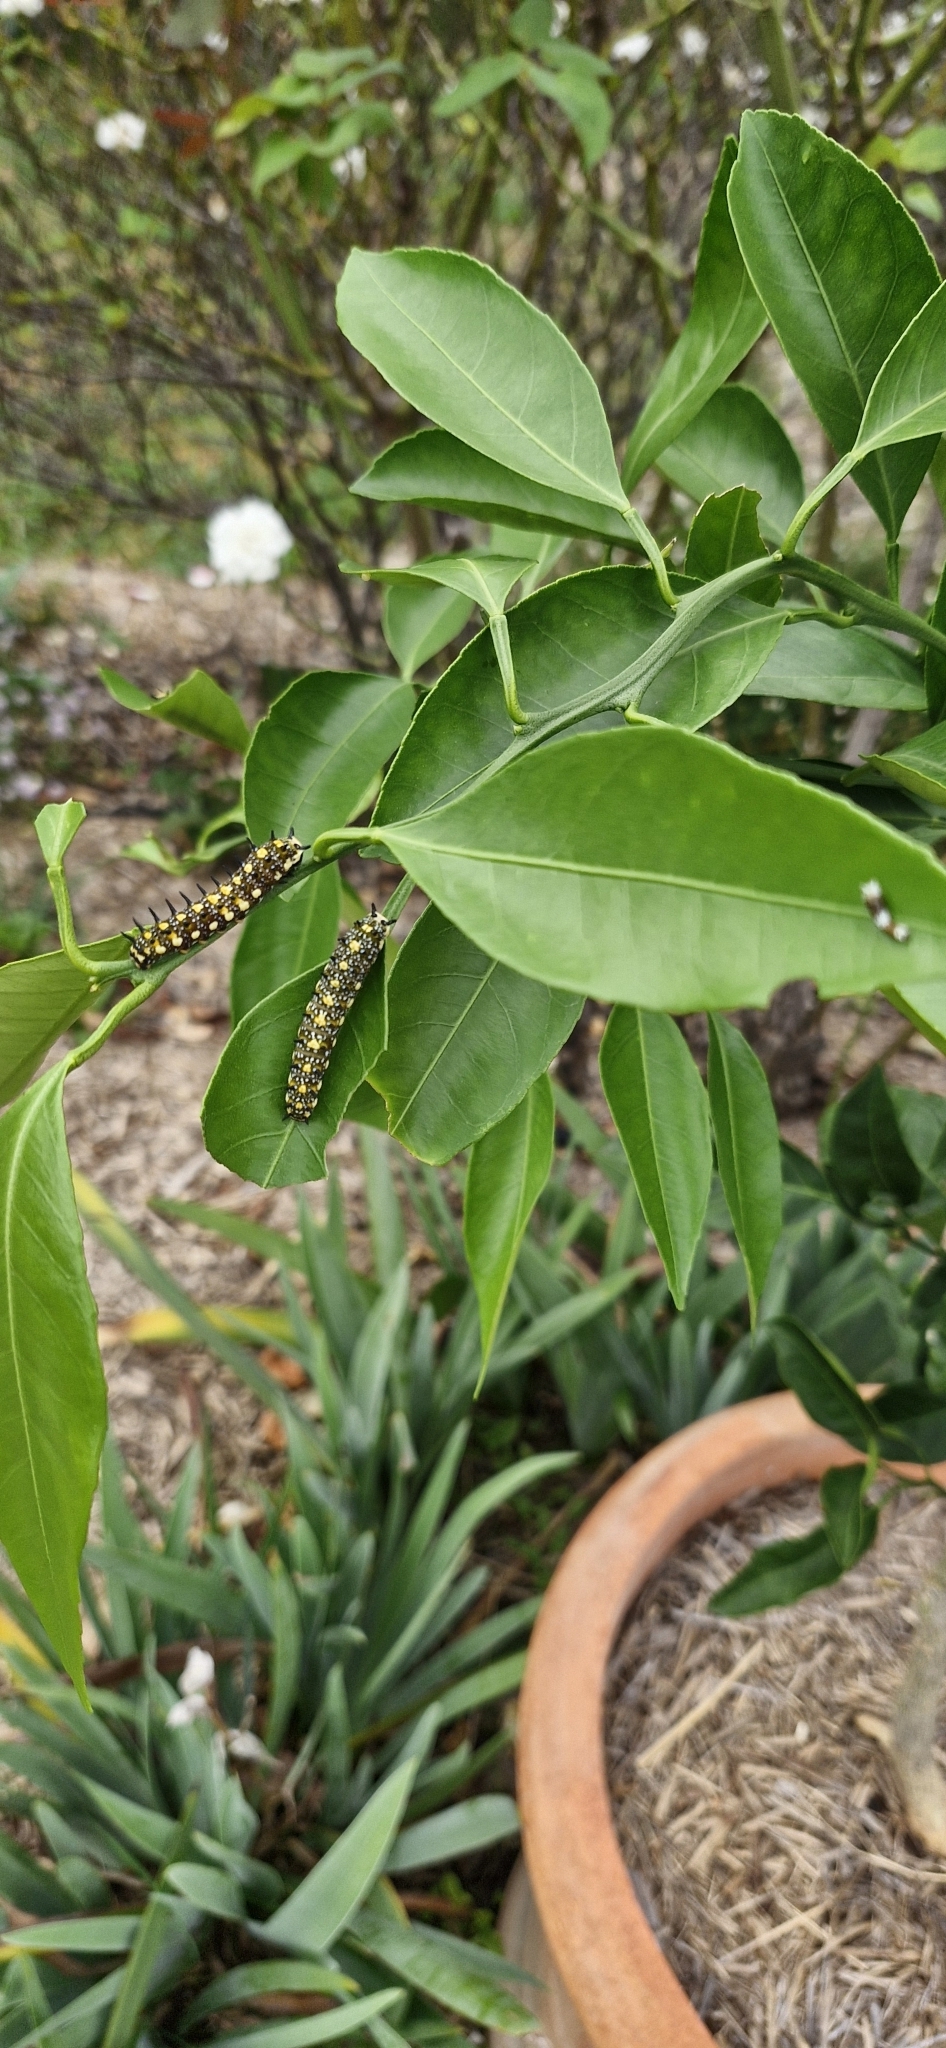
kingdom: Animalia
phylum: Arthropoda
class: Insecta
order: Lepidoptera
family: Papilionidae
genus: Papilio
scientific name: Papilio anactus
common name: Dingy swallowtail
